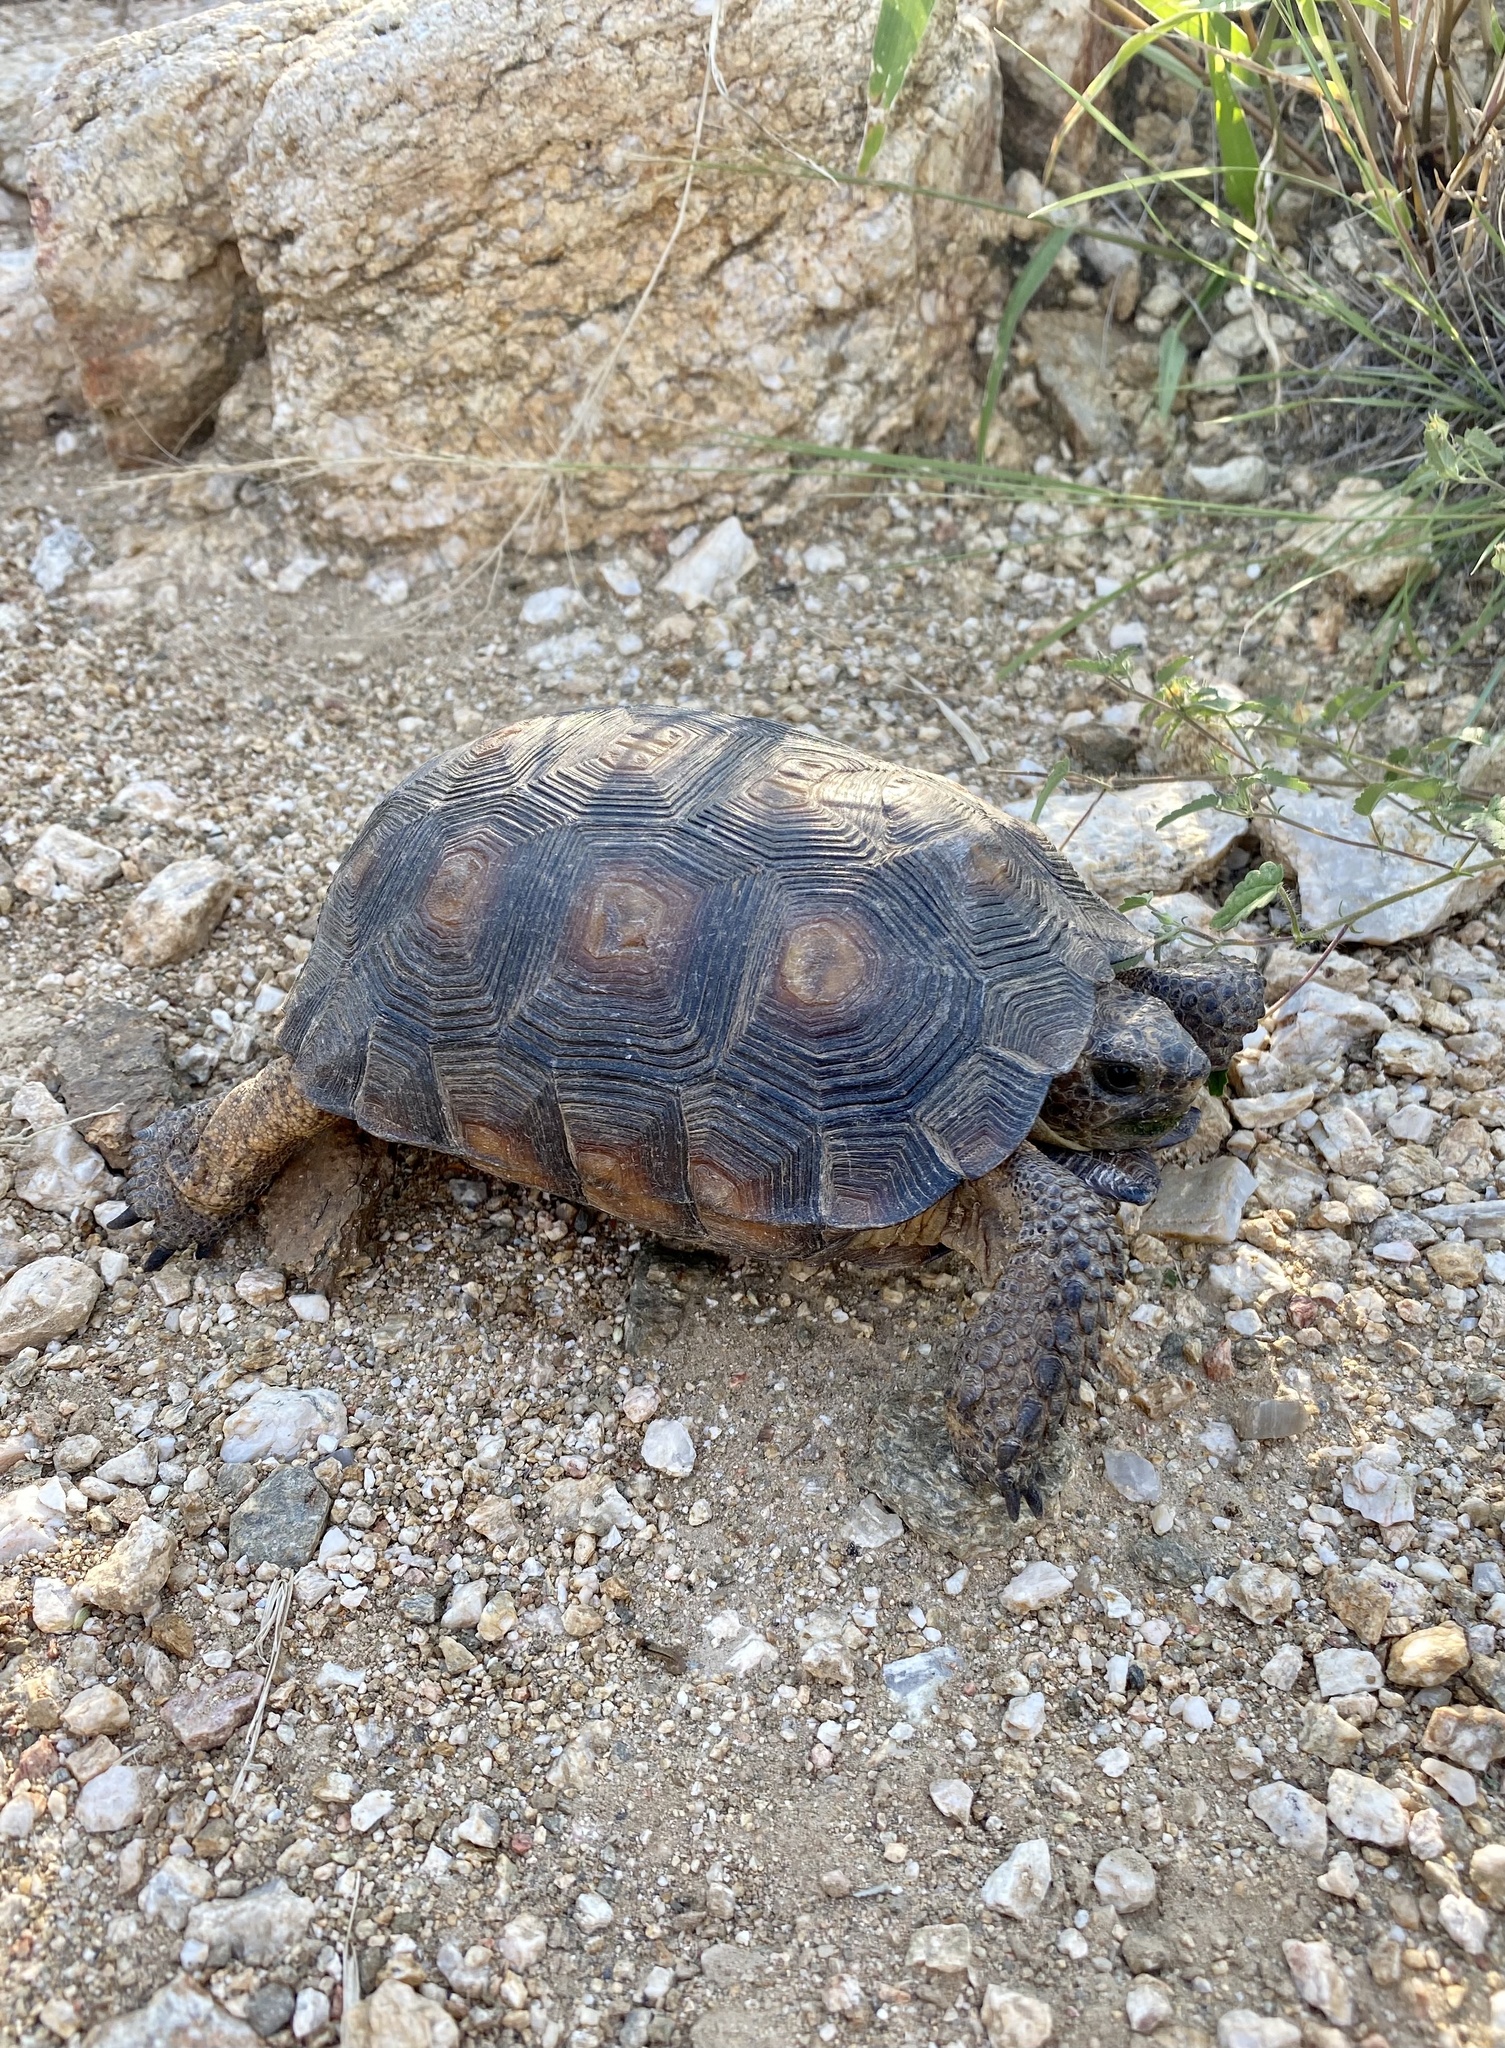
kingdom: Animalia
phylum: Chordata
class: Testudines
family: Testudinidae
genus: Gopherus
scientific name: Gopherus morafkai
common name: Sonoran desert tortoise
